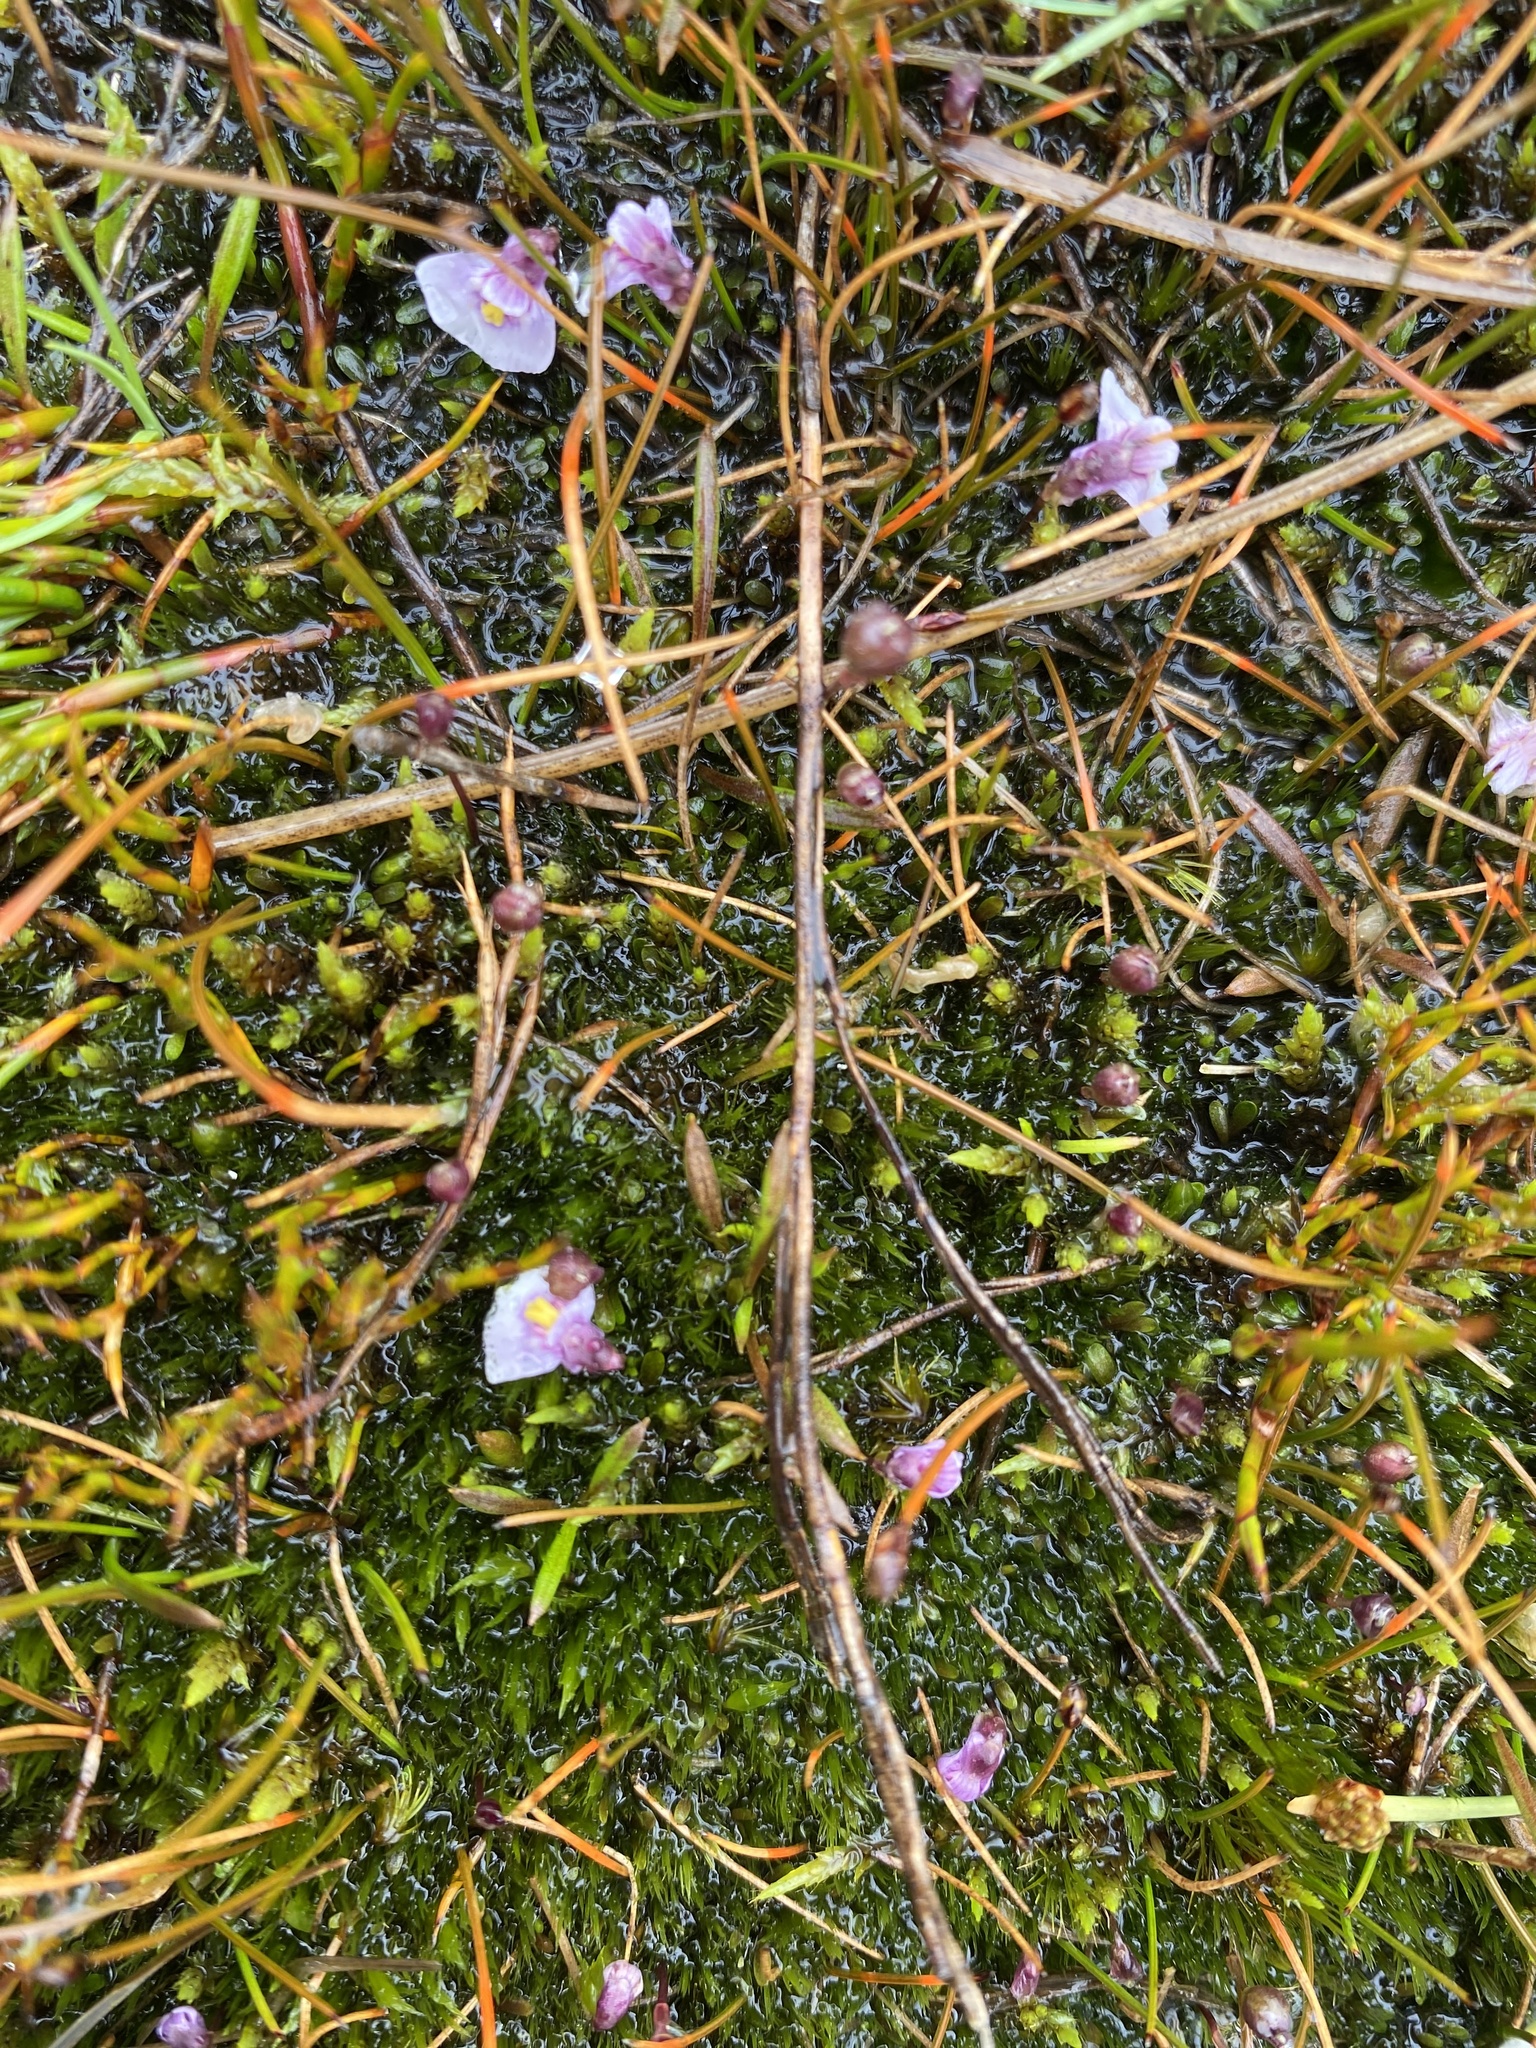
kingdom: Plantae
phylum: Tracheophyta
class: Magnoliopsida
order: Lamiales
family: Lentibulariaceae
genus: Utricularia
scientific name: Utricularia dichotoma
